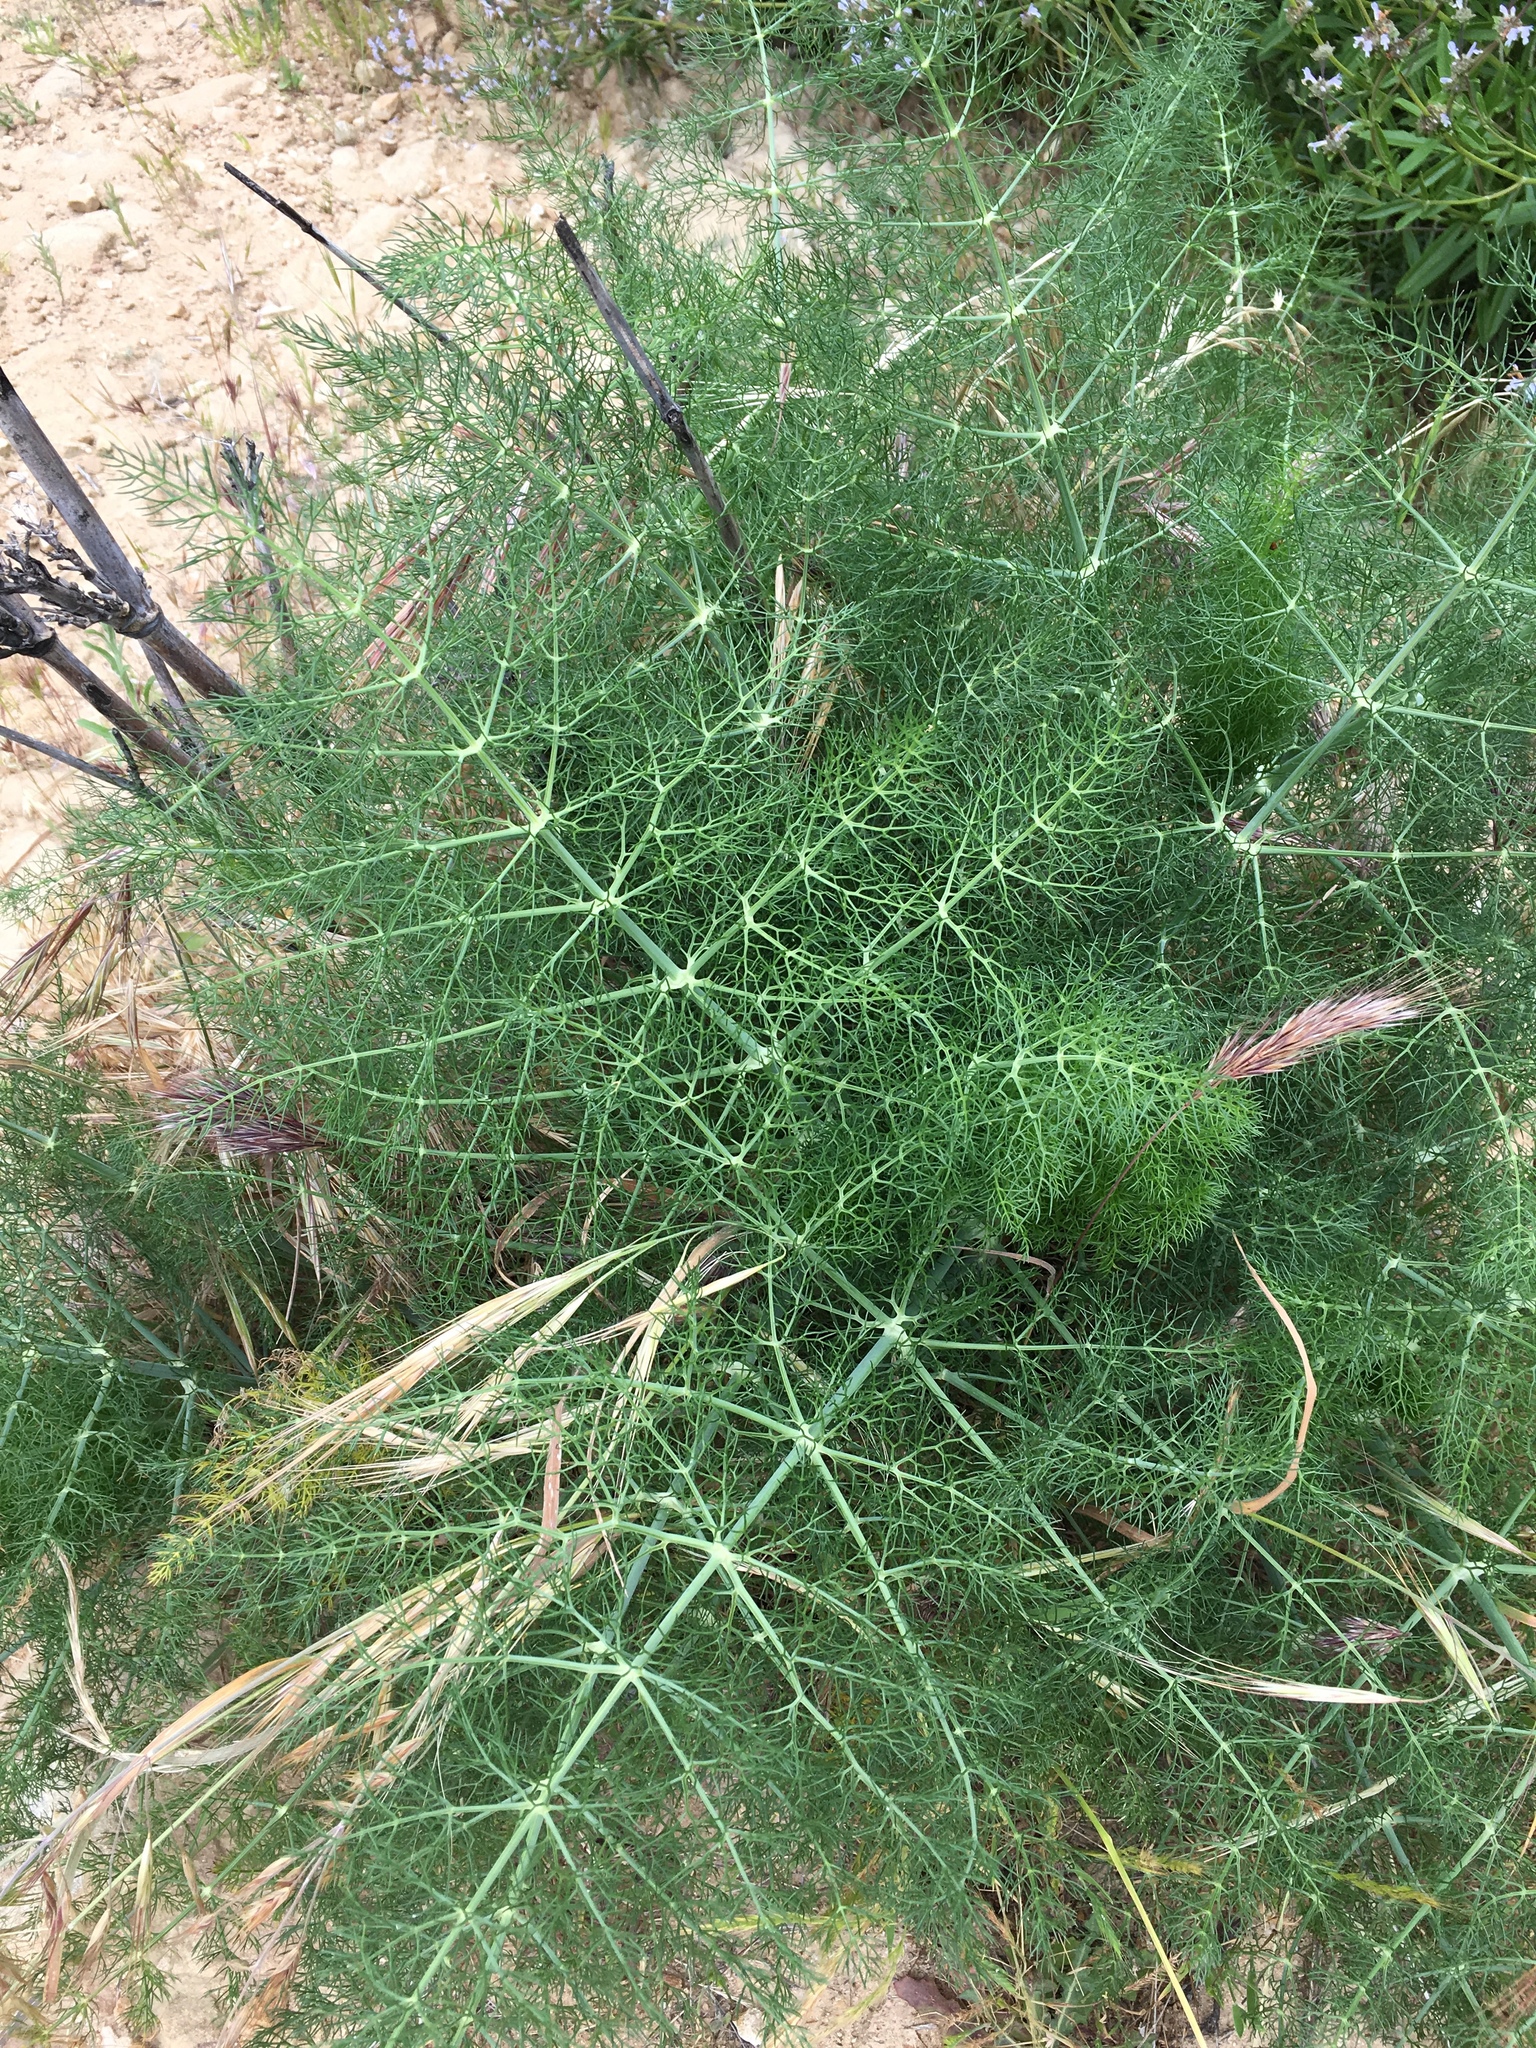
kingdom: Plantae
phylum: Tracheophyta
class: Magnoliopsida
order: Apiales
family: Apiaceae
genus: Foeniculum
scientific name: Foeniculum vulgare
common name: Fennel
